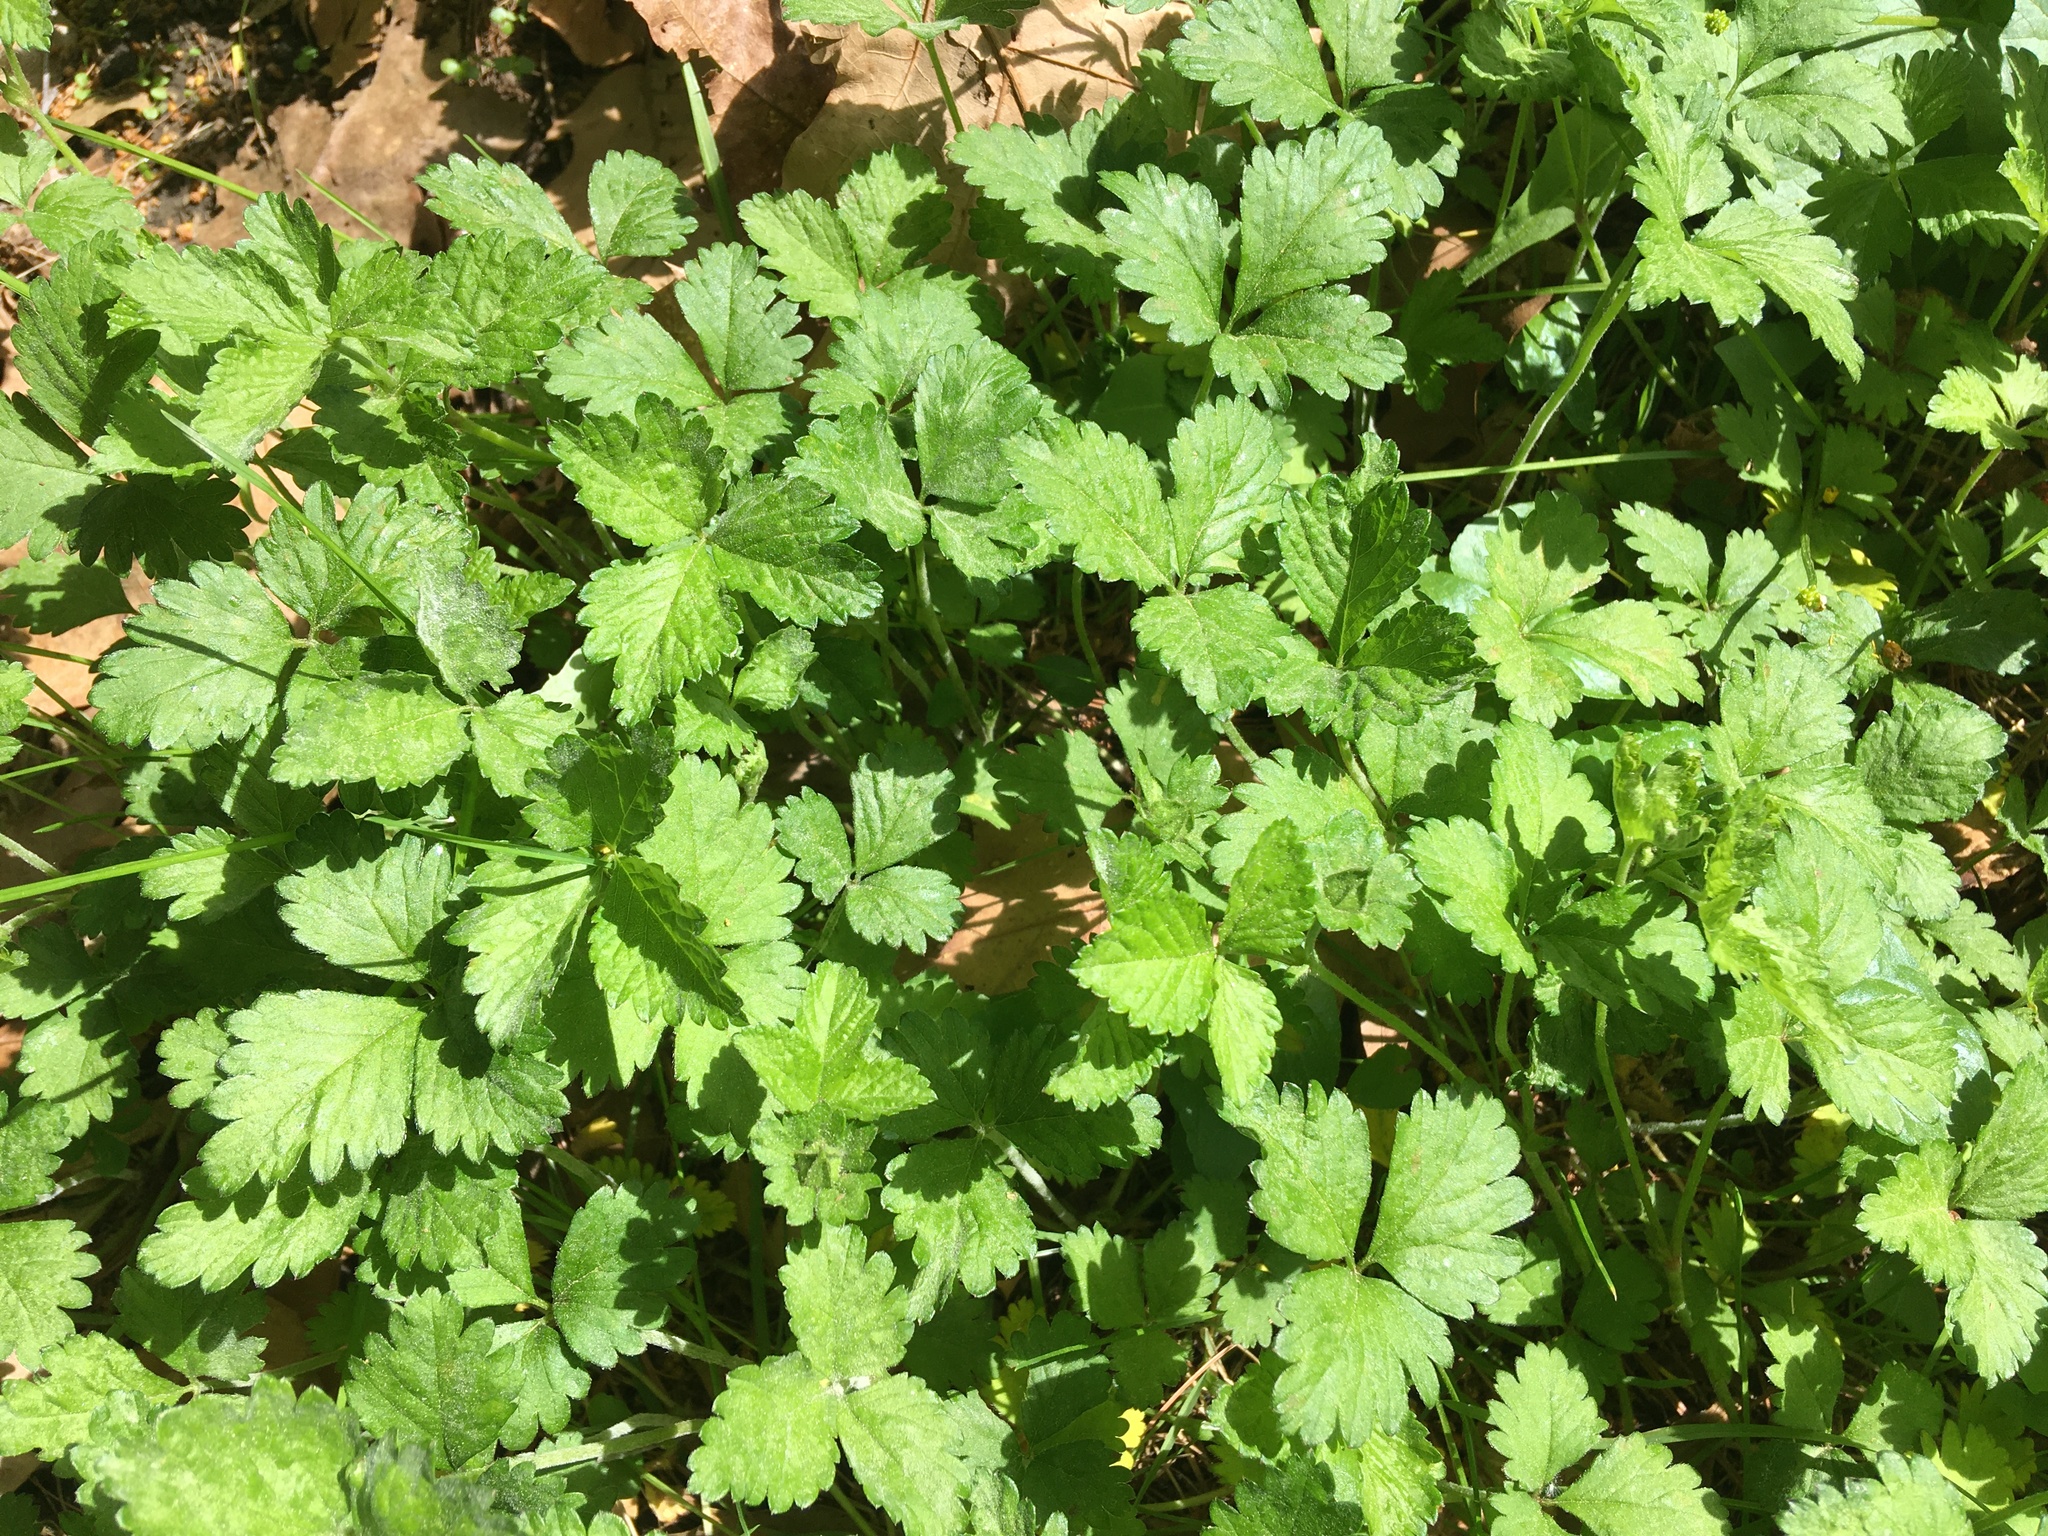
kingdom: Plantae
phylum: Tracheophyta
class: Magnoliopsida
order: Rosales
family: Rosaceae
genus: Potentilla
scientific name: Potentilla indica
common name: Yellow-flowered strawberry
